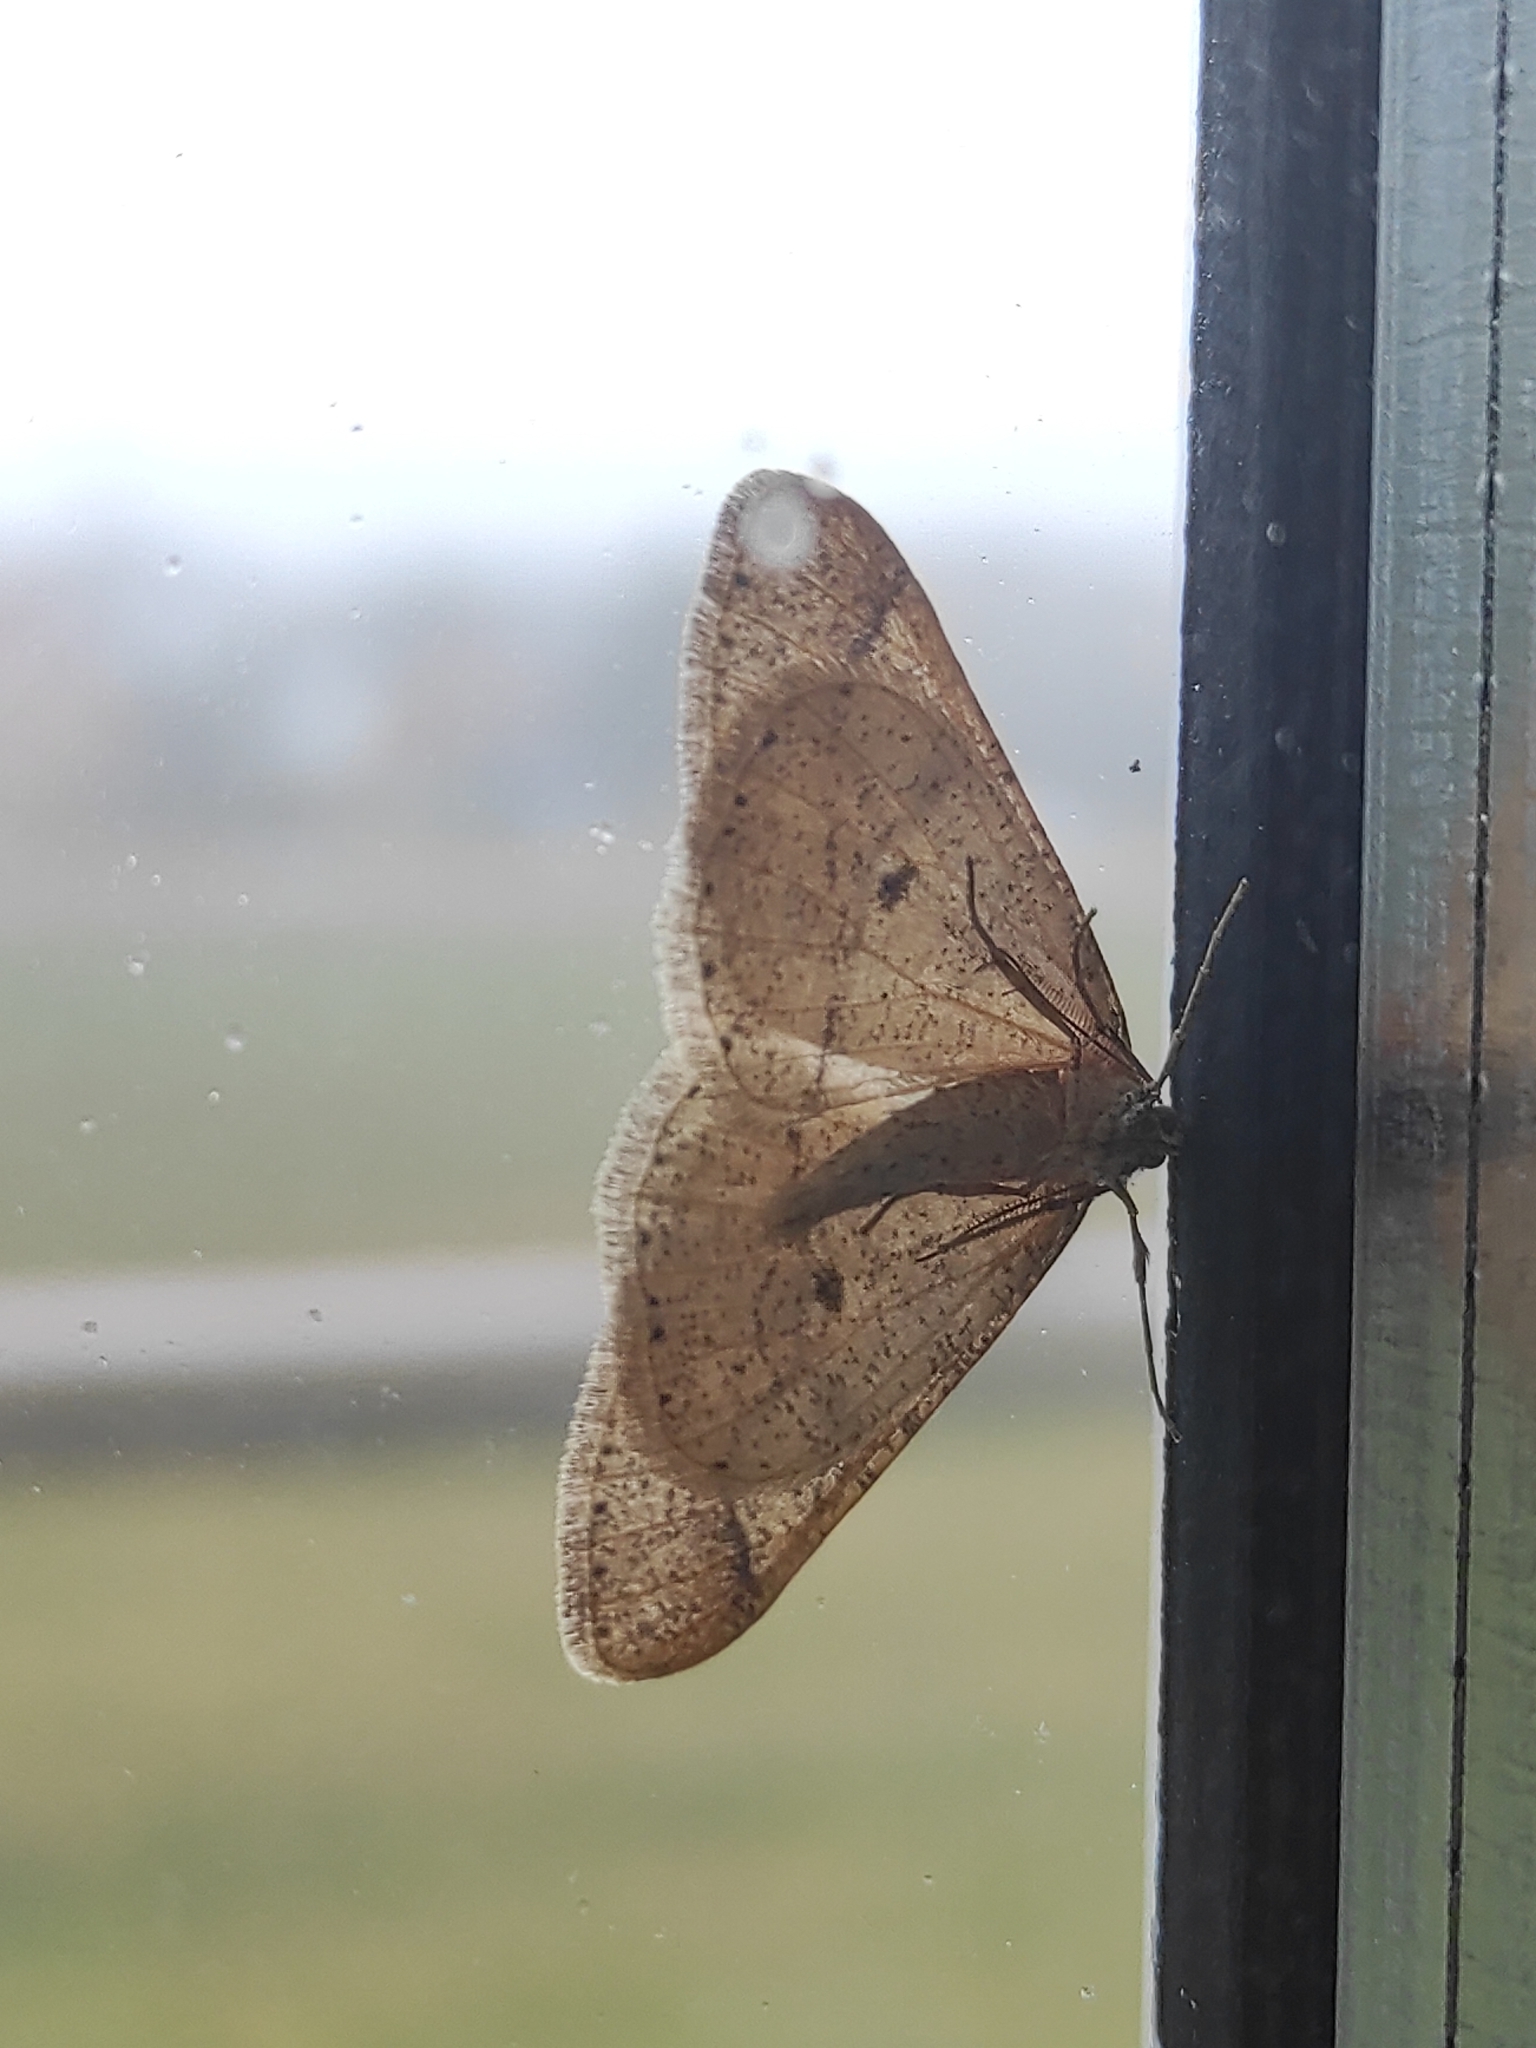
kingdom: Animalia
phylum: Arthropoda
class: Insecta
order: Lepidoptera
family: Geometridae
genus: Agriopis
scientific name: Agriopis marginaria
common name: Dotted border
